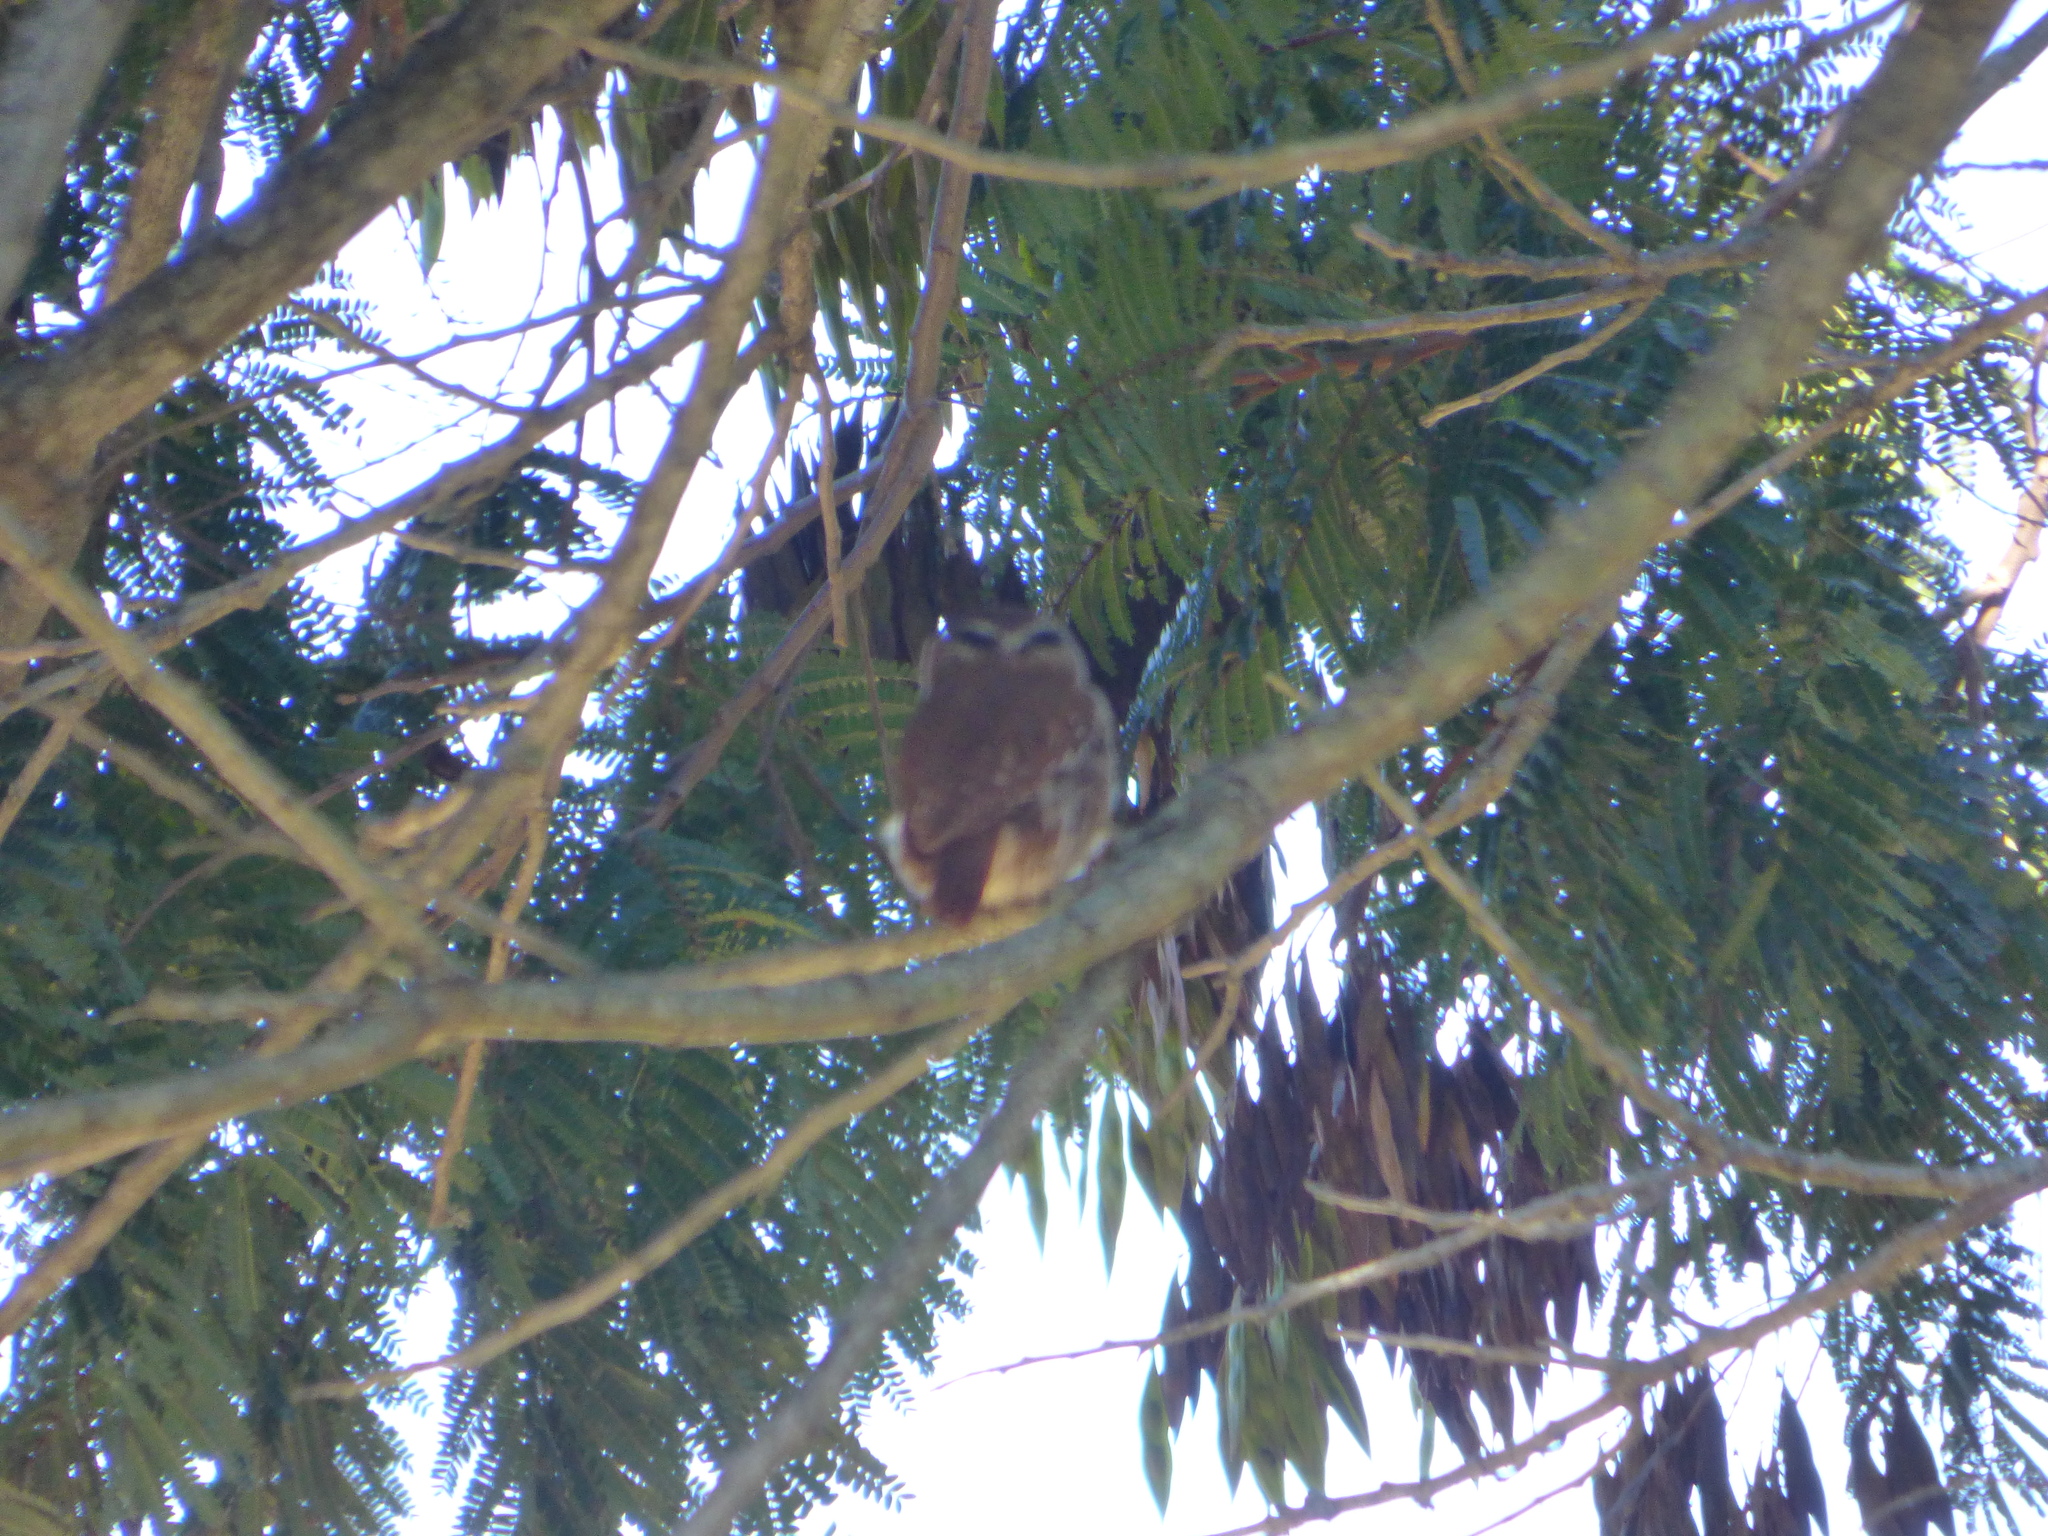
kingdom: Animalia
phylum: Chordata
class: Aves
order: Strigiformes
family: Strigidae
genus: Glaucidium
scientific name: Glaucidium brasilianum
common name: Ferruginous pygmy-owl
